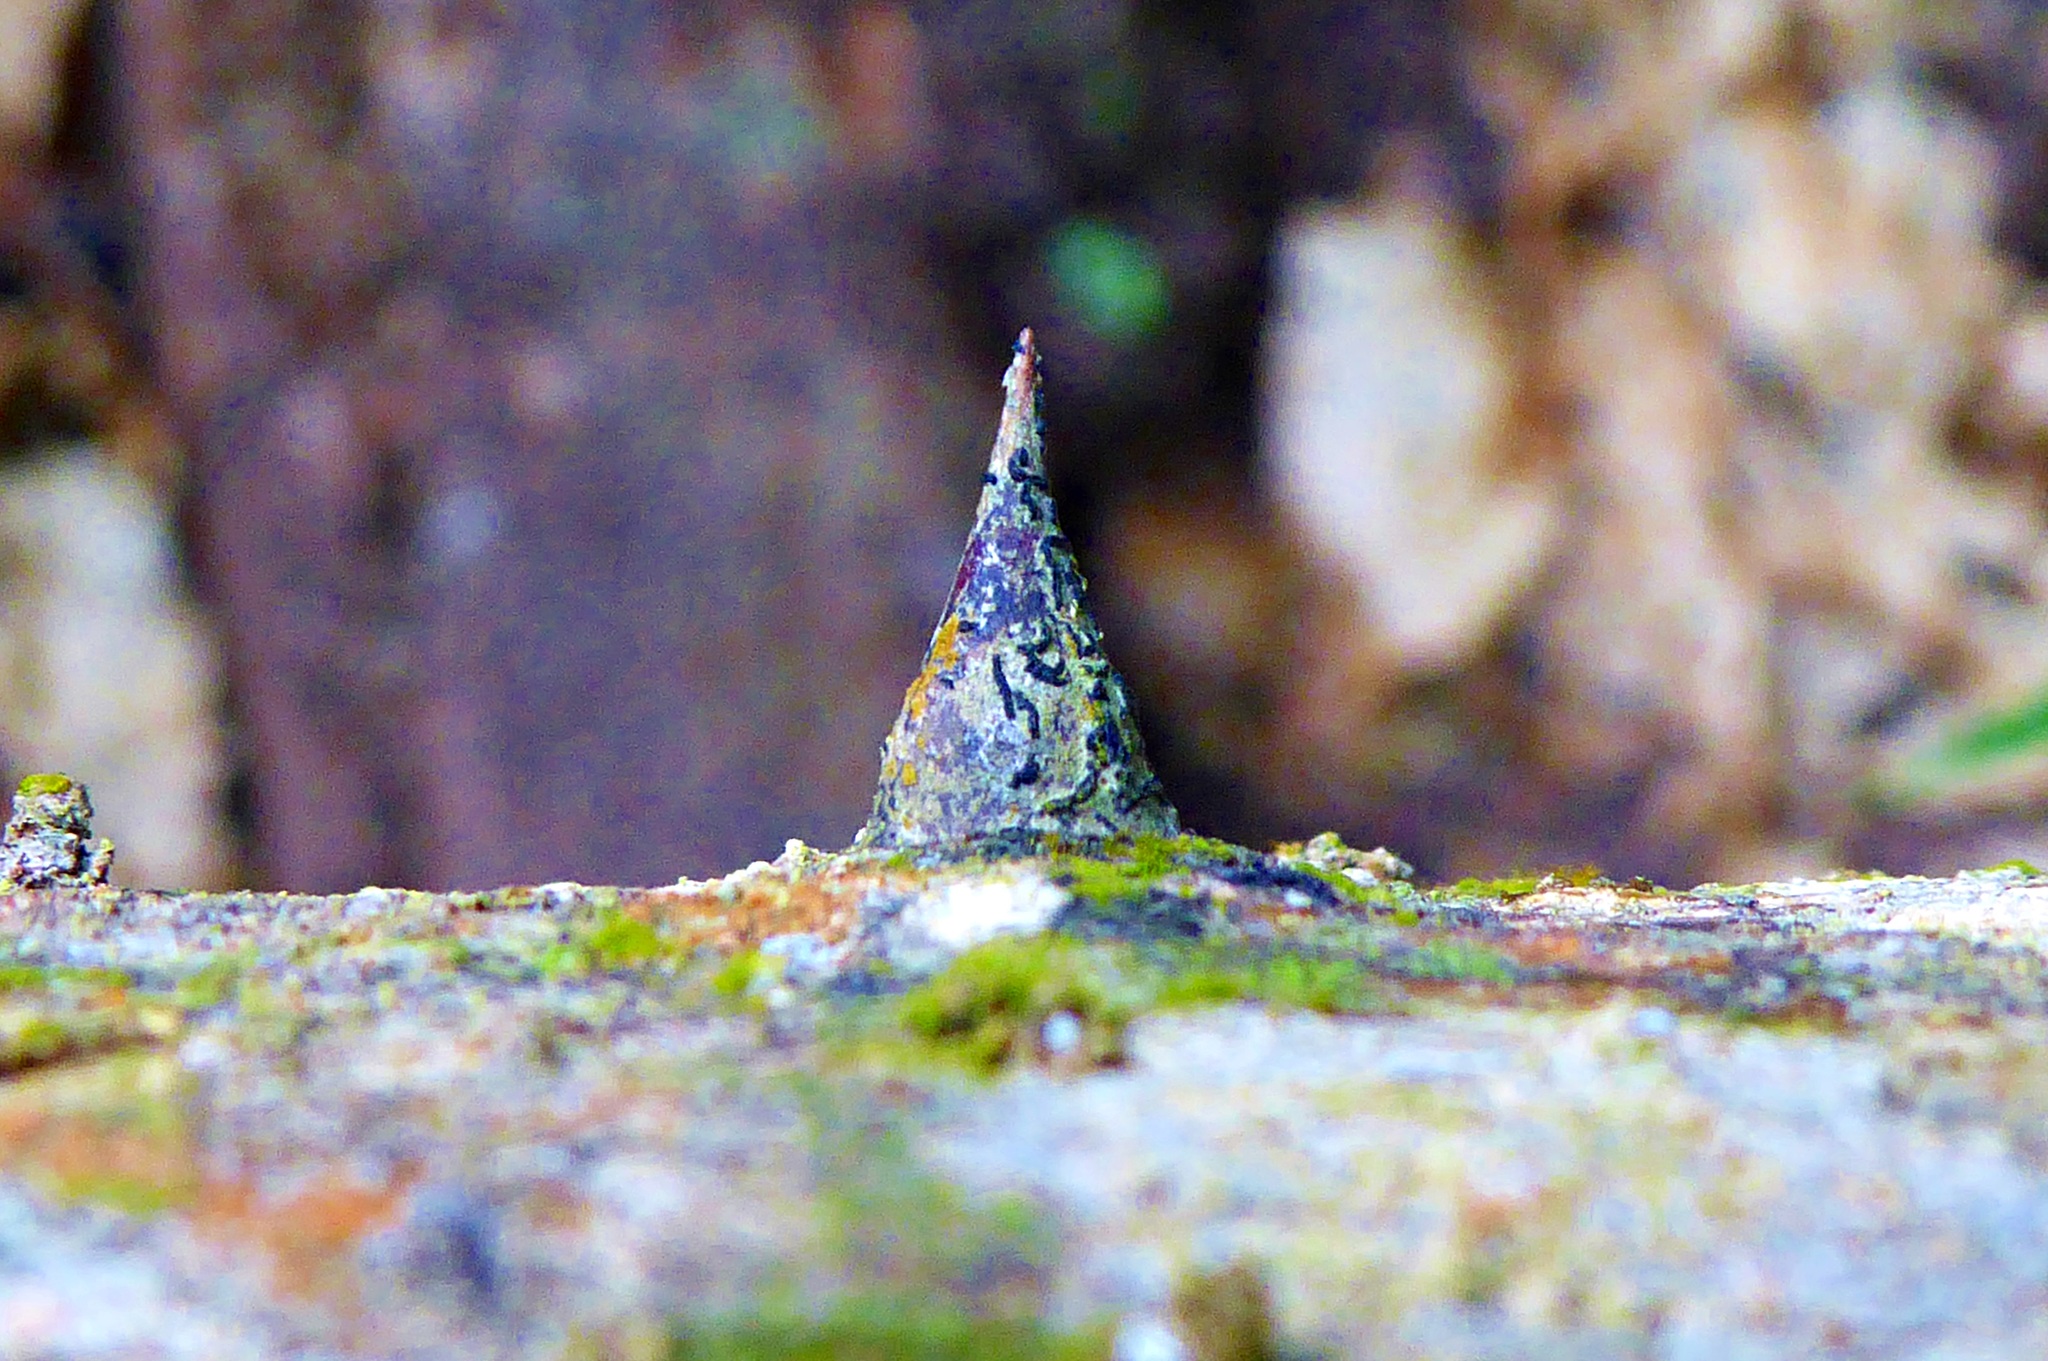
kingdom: Plantae
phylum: Tracheophyta
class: Magnoliopsida
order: Fabales
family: Fabaceae
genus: Erythrina
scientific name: Erythrina poeppigiana
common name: Coral tree
